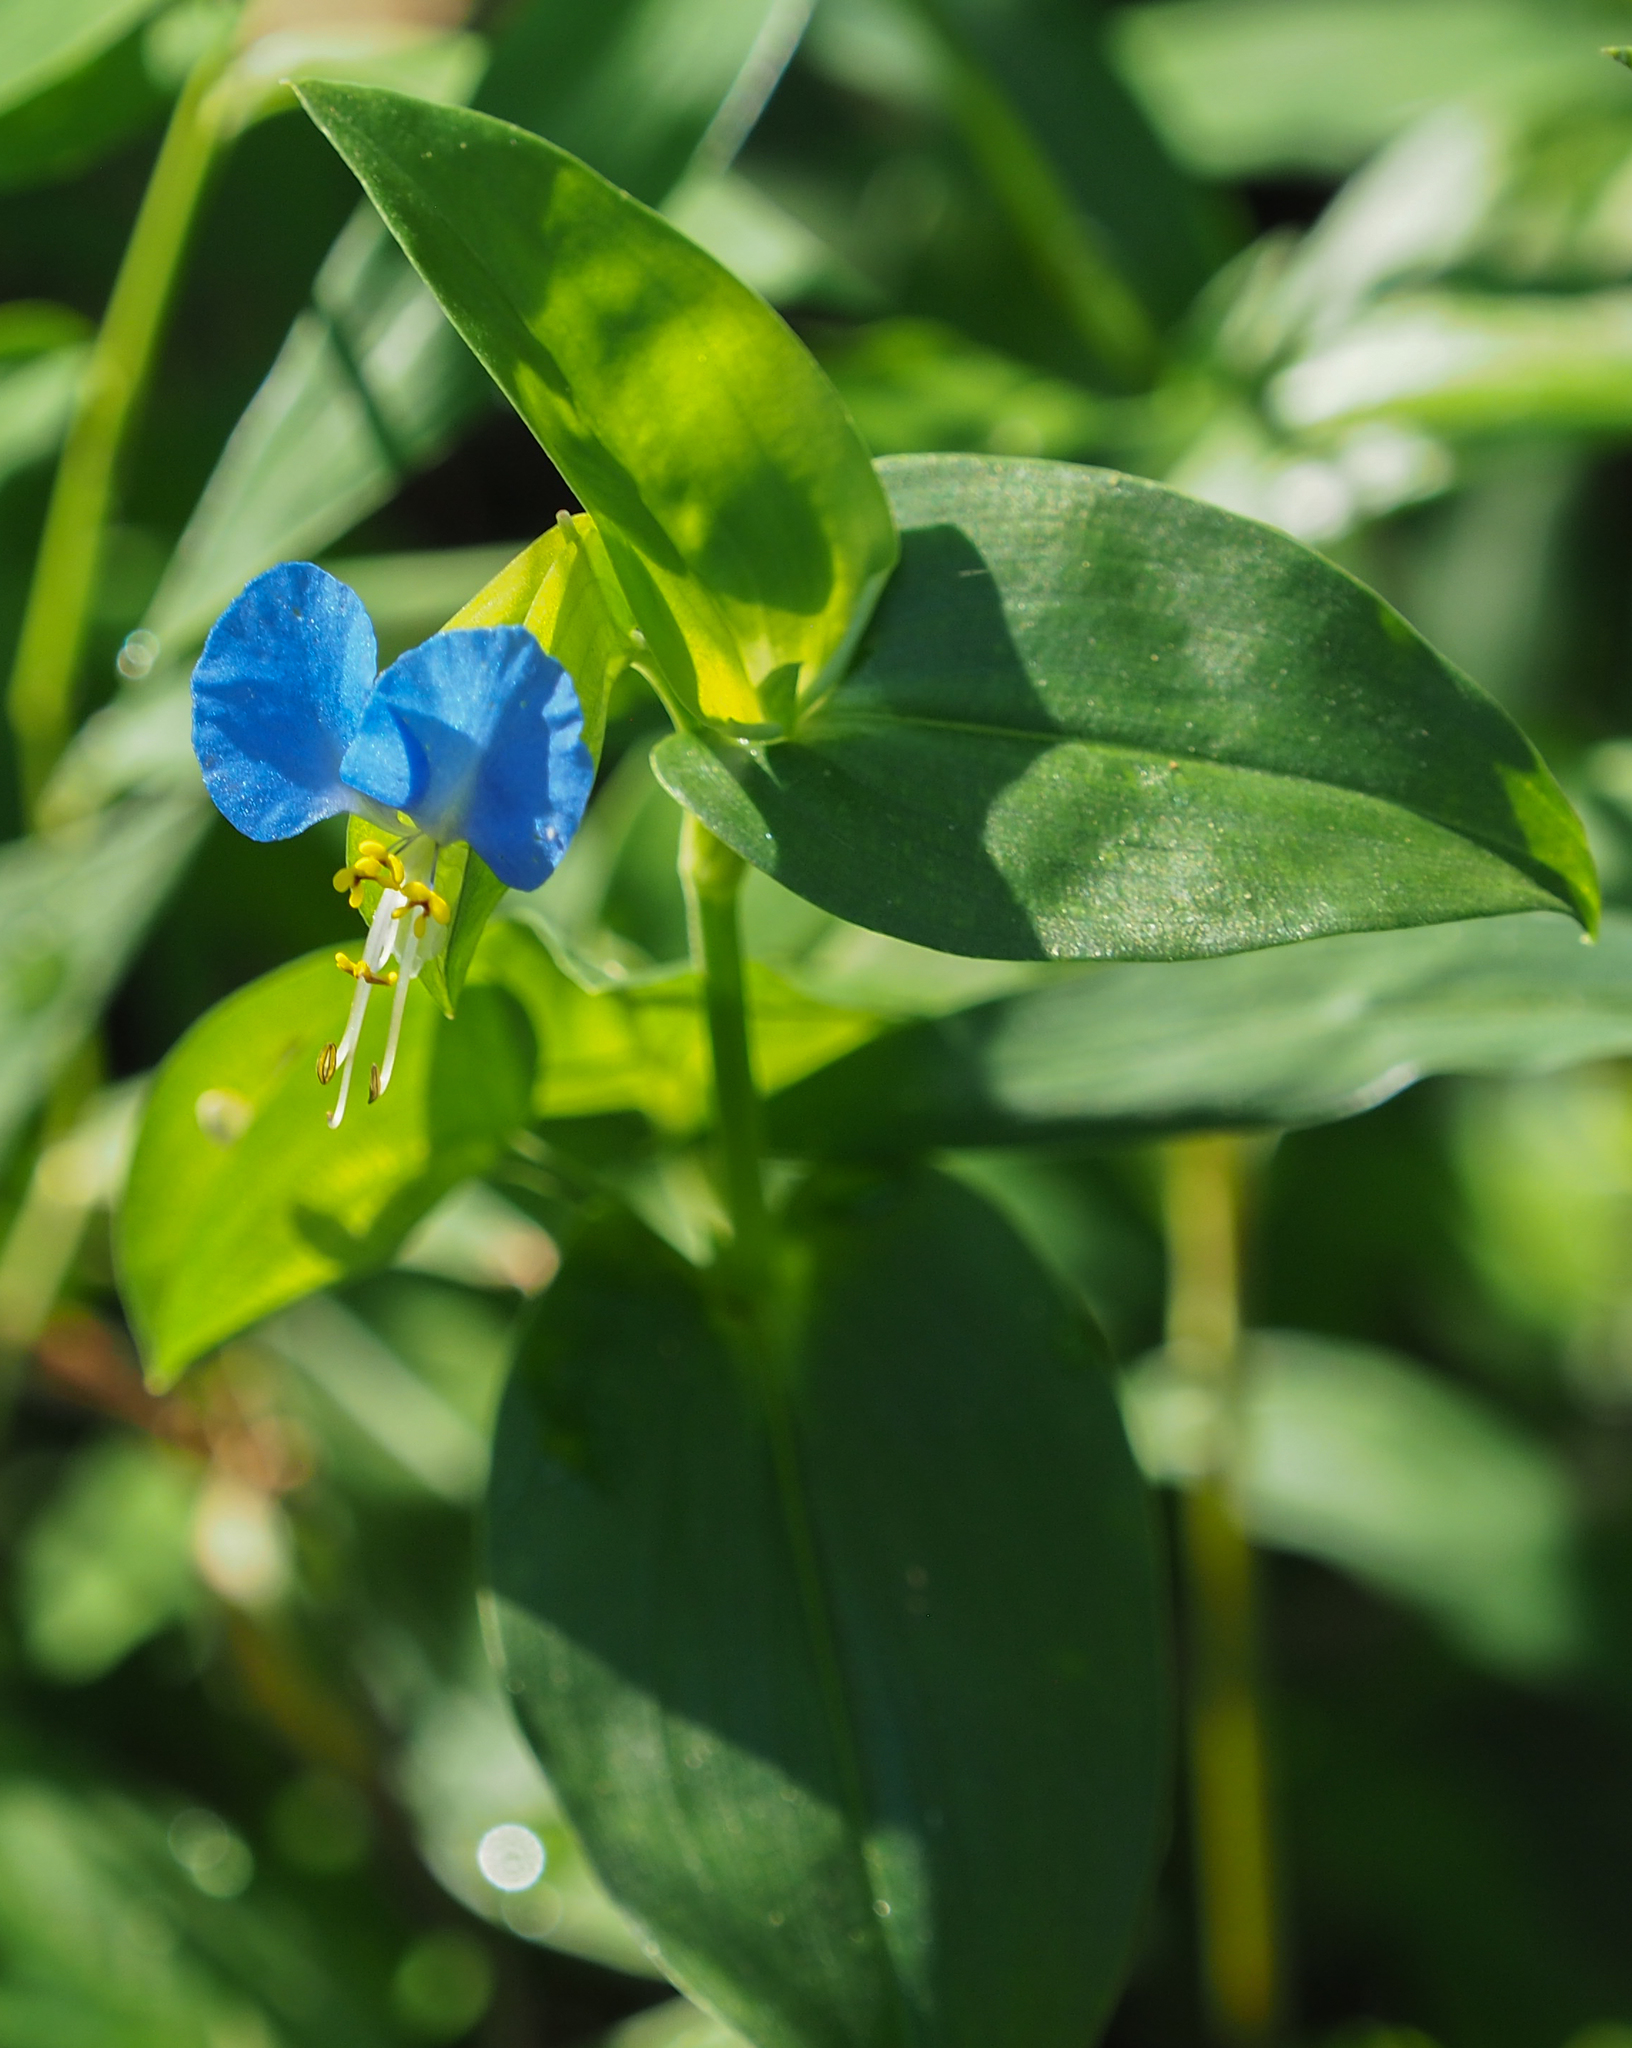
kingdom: Plantae
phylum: Tracheophyta
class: Liliopsida
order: Commelinales
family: Commelinaceae
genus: Commelina
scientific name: Commelina communis
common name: Asiatic dayflower
